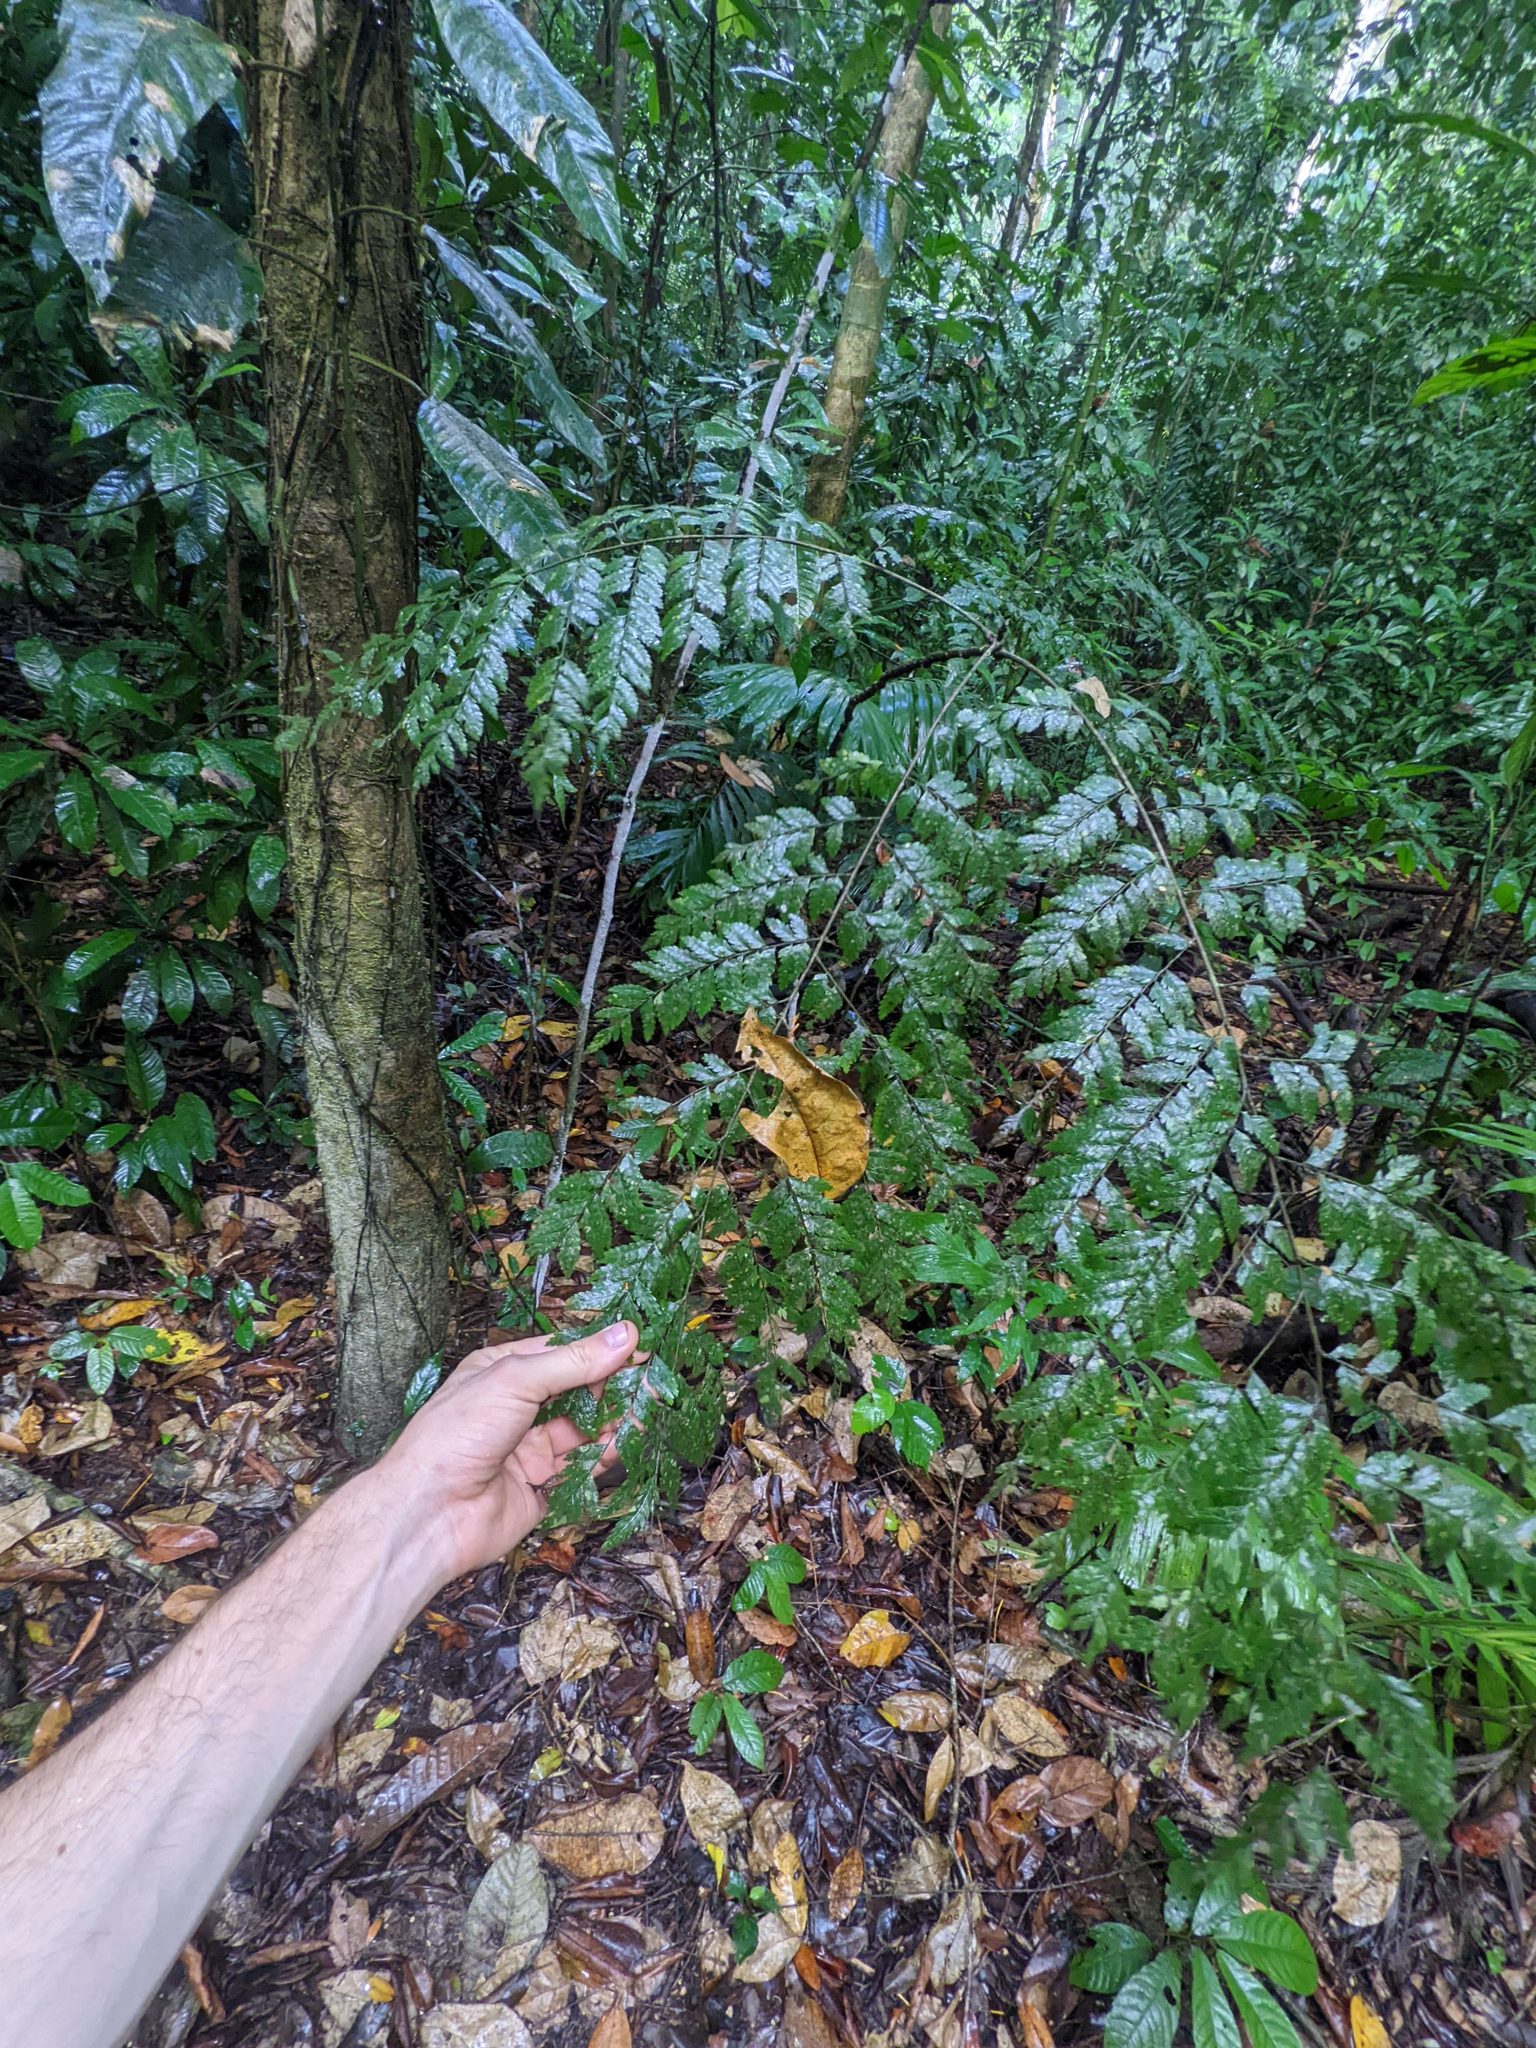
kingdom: Plantae
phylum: Tracheophyta
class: Magnoliopsida
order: Sapindales
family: Sapindaceae
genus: Dilodendron
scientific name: Dilodendron costaricense
